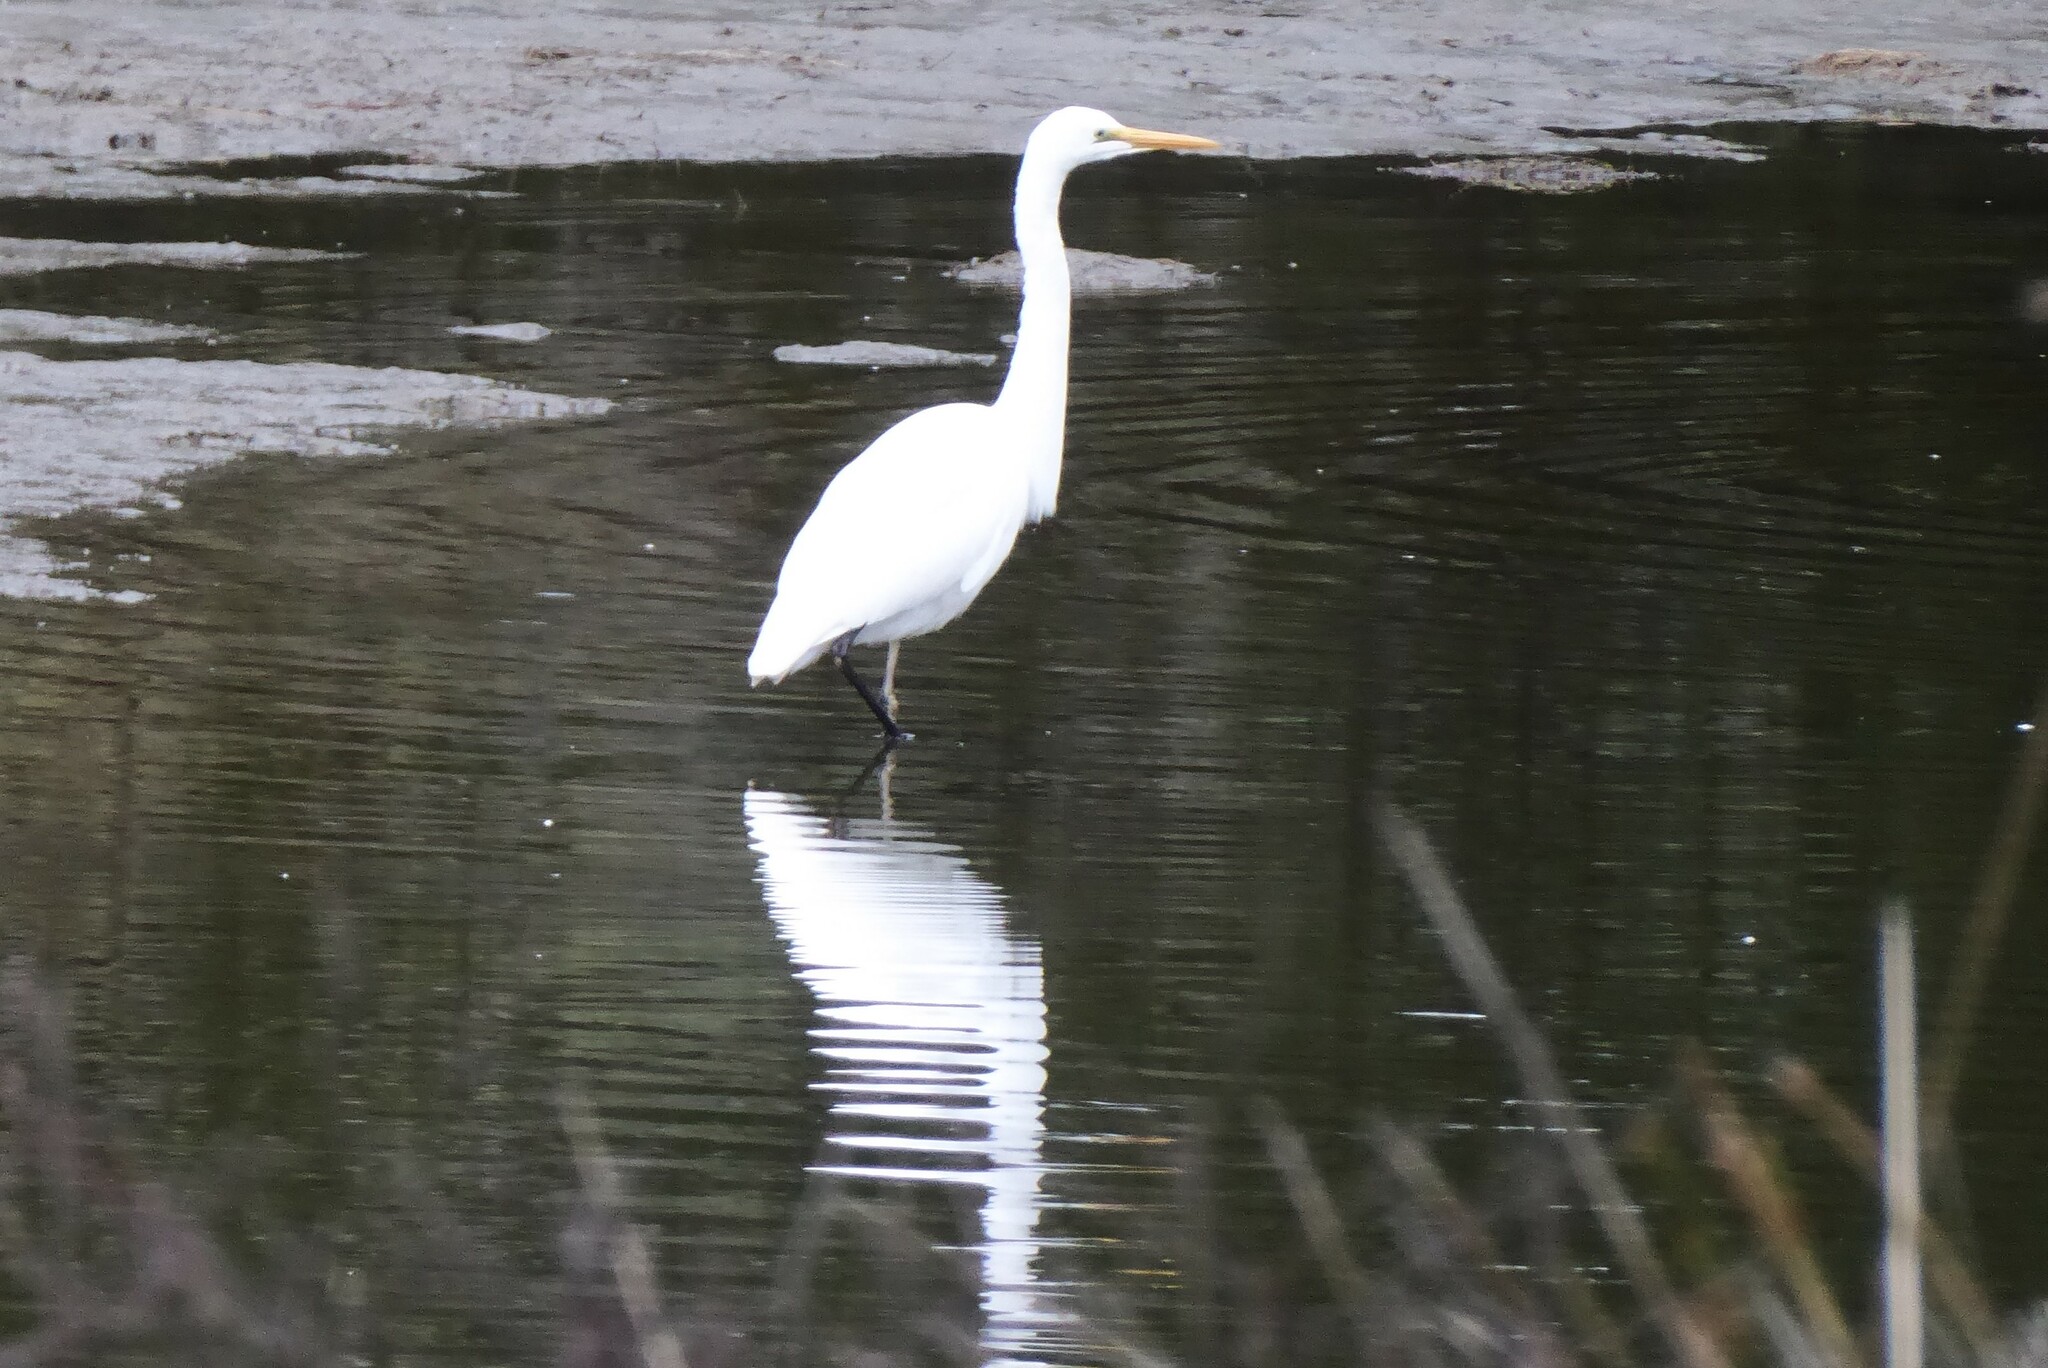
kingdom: Animalia
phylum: Chordata
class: Aves
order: Pelecaniformes
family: Ardeidae
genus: Ardea
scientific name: Ardea modesta
